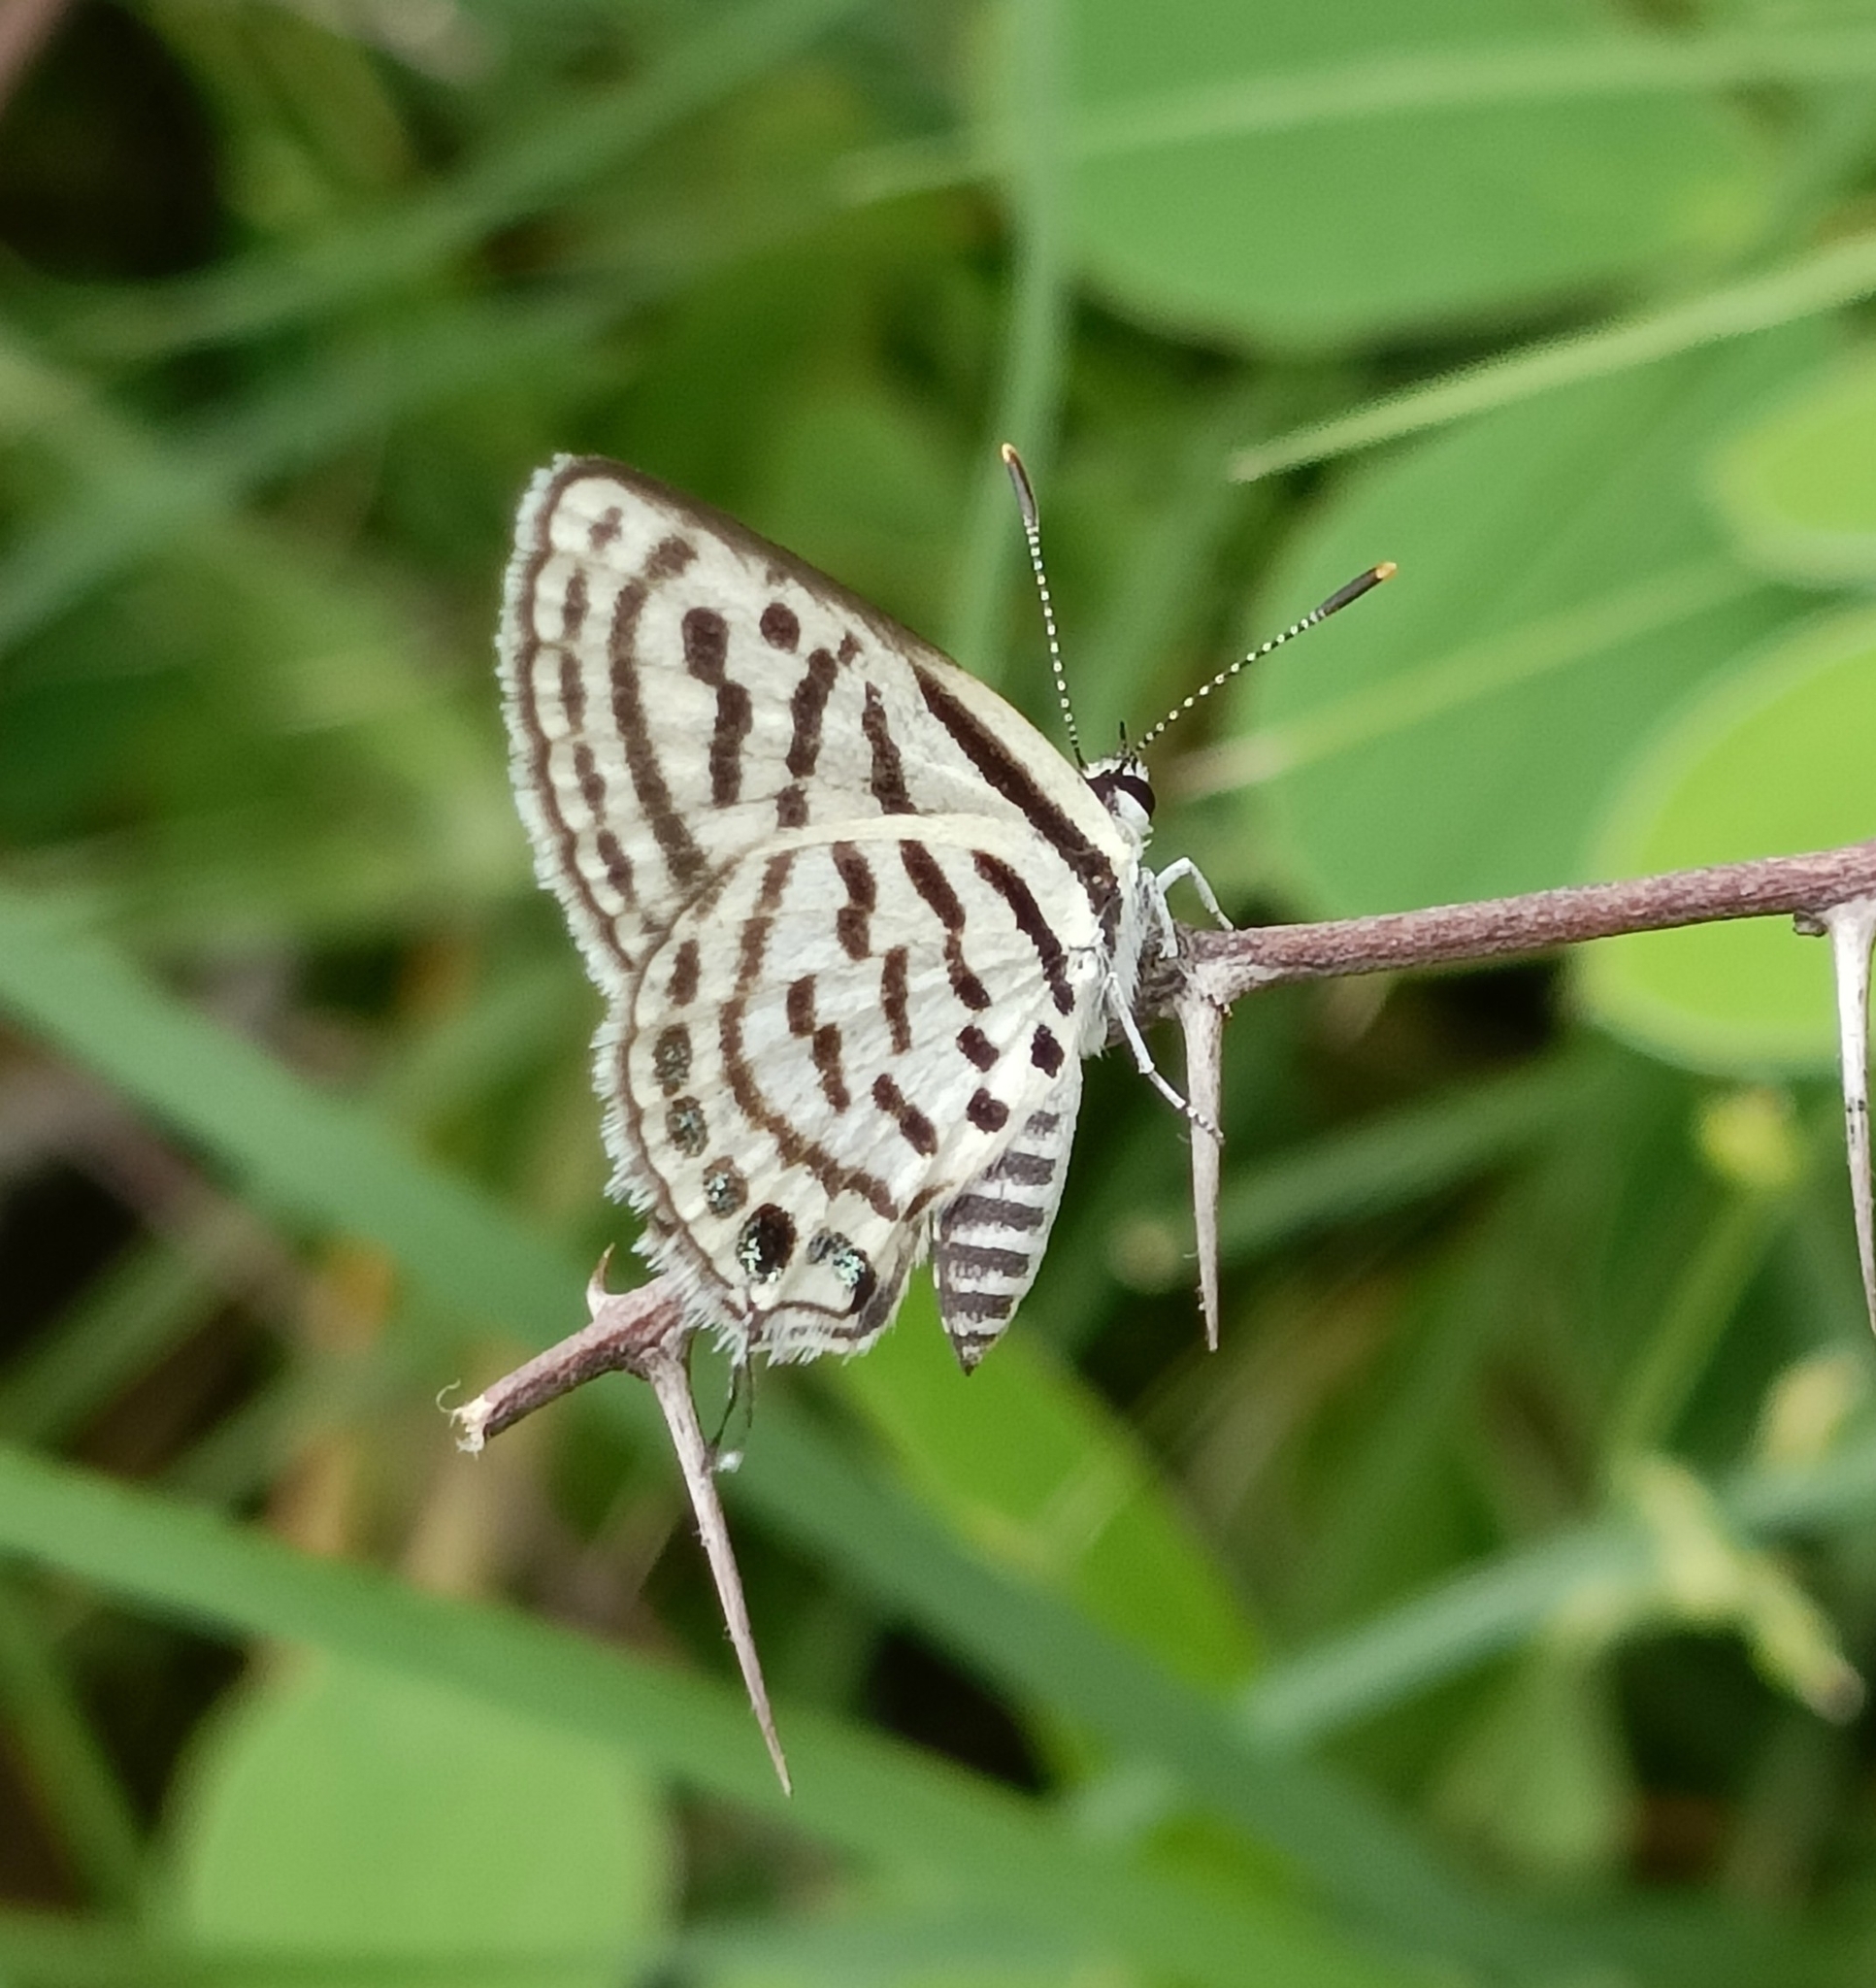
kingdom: Animalia
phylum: Arthropoda
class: Insecta
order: Lepidoptera
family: Lycaenidae
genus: Tarucus
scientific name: Tarucus balkanica
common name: Little tiger blue
